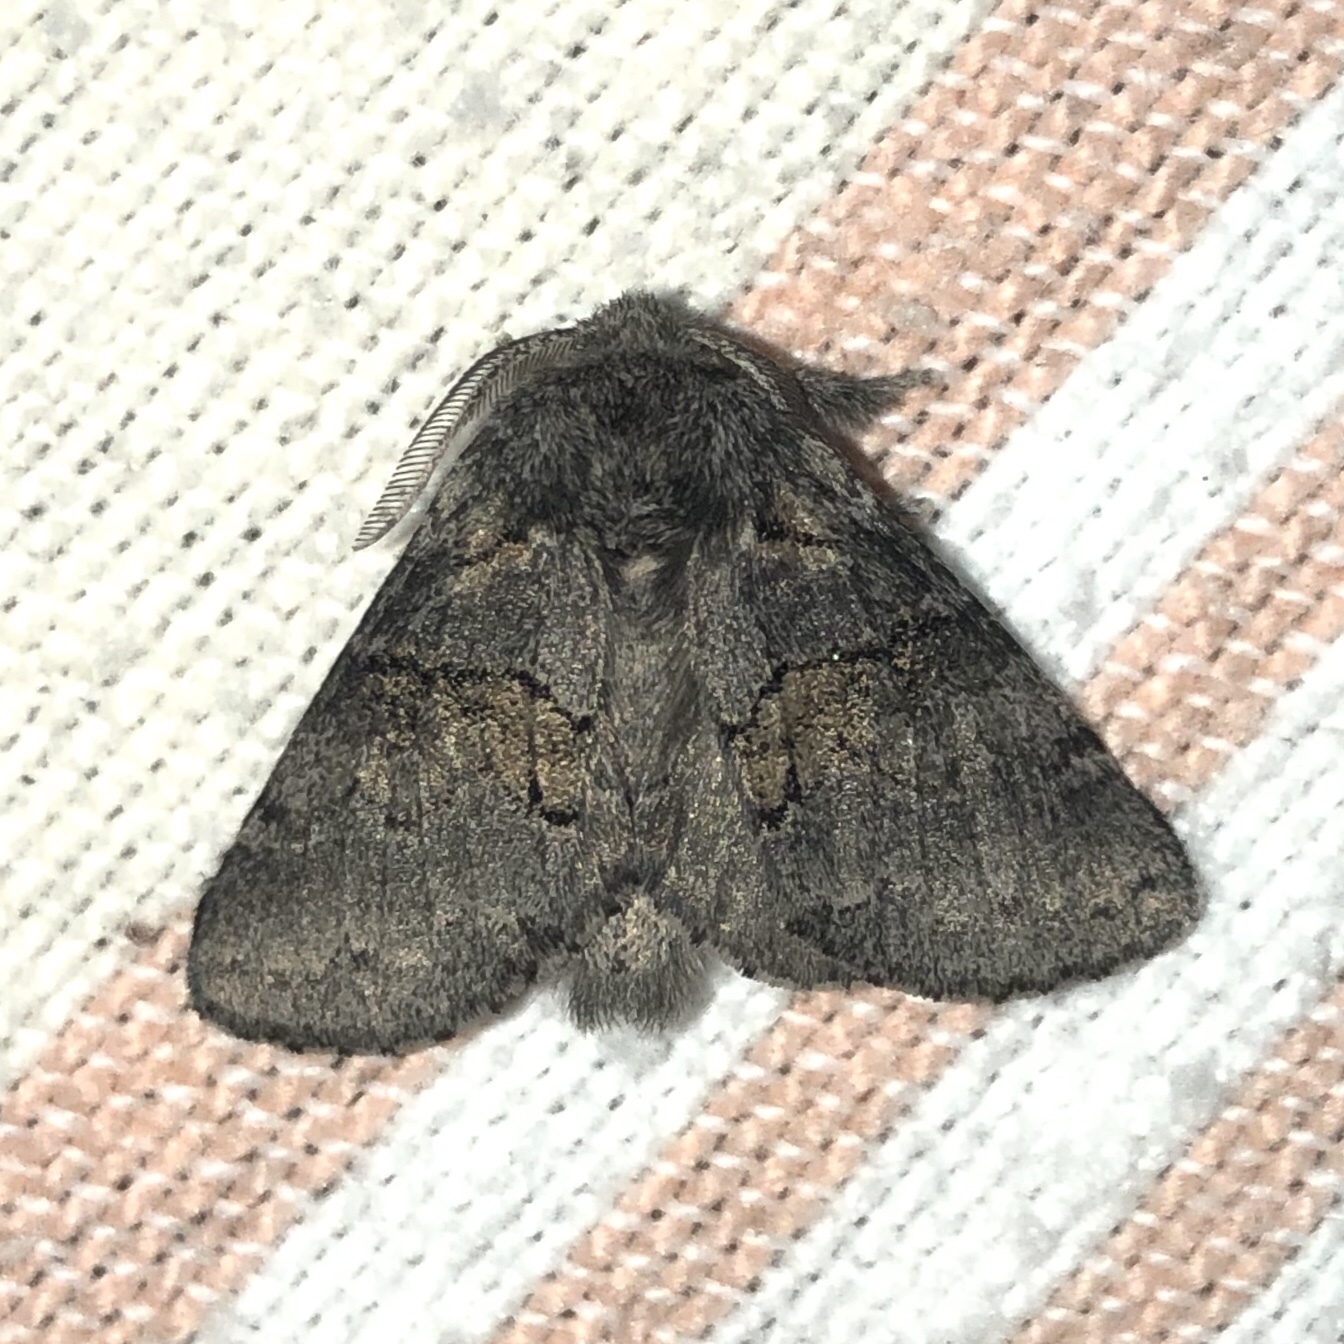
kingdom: Animalia
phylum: Arthropoda
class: Insecta
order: Lepidoptera
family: Notodontidae
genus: Gluphisia
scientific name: Gluphisia septentrionis
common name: Common gluphisia
